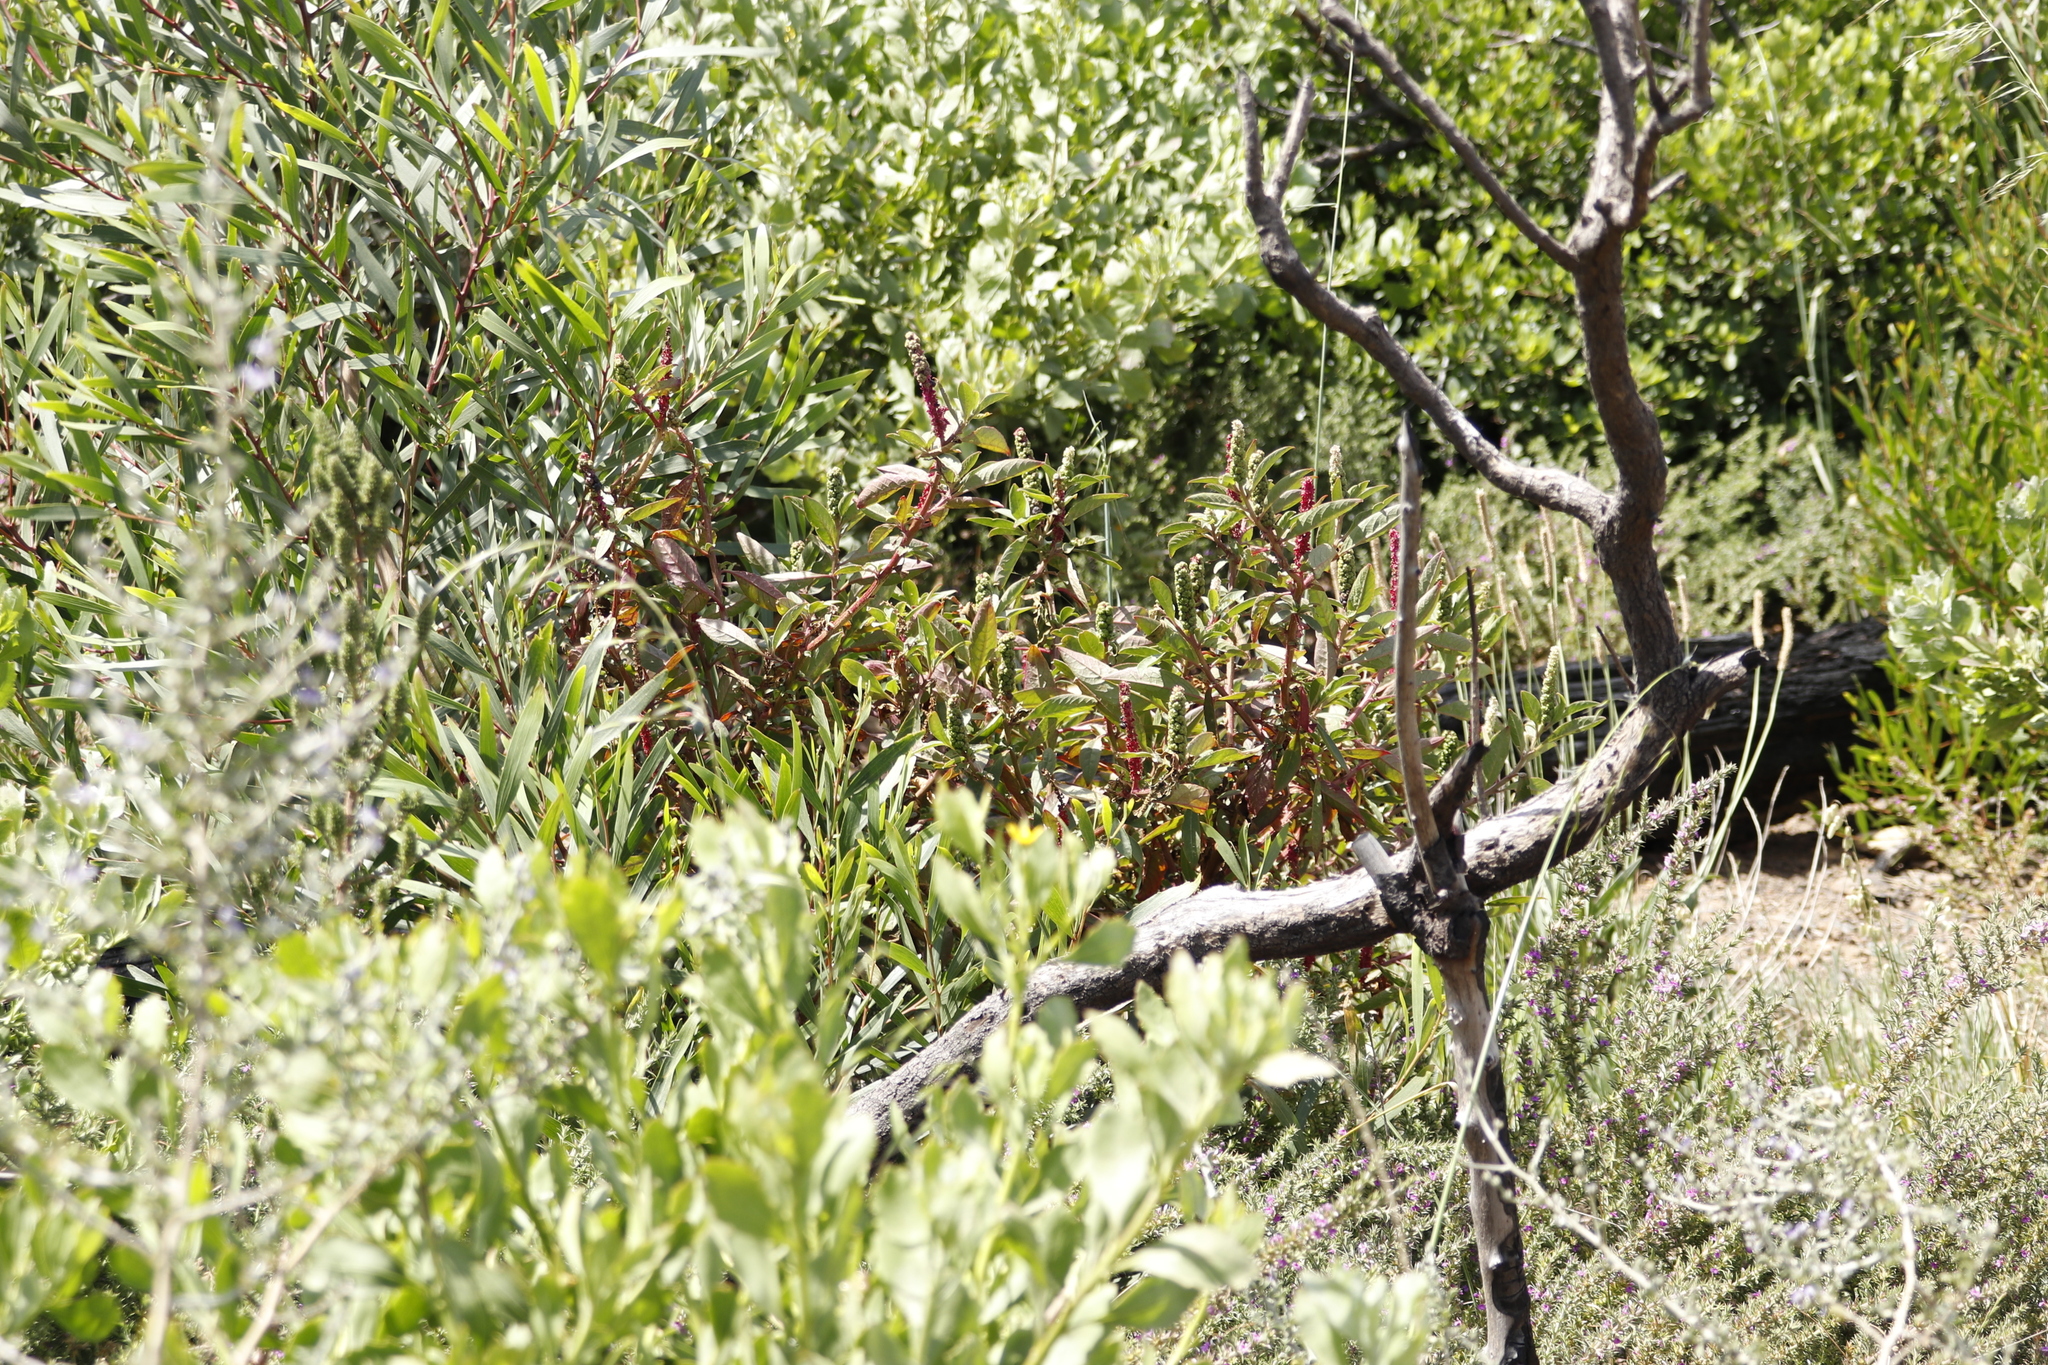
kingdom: Plantae
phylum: Tracheophyta
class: Magnoliopsida
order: Caryophyllales
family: Phytolaccaceae
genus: Phytolacca
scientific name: Phytolacca icosandra
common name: Button pokeweed
